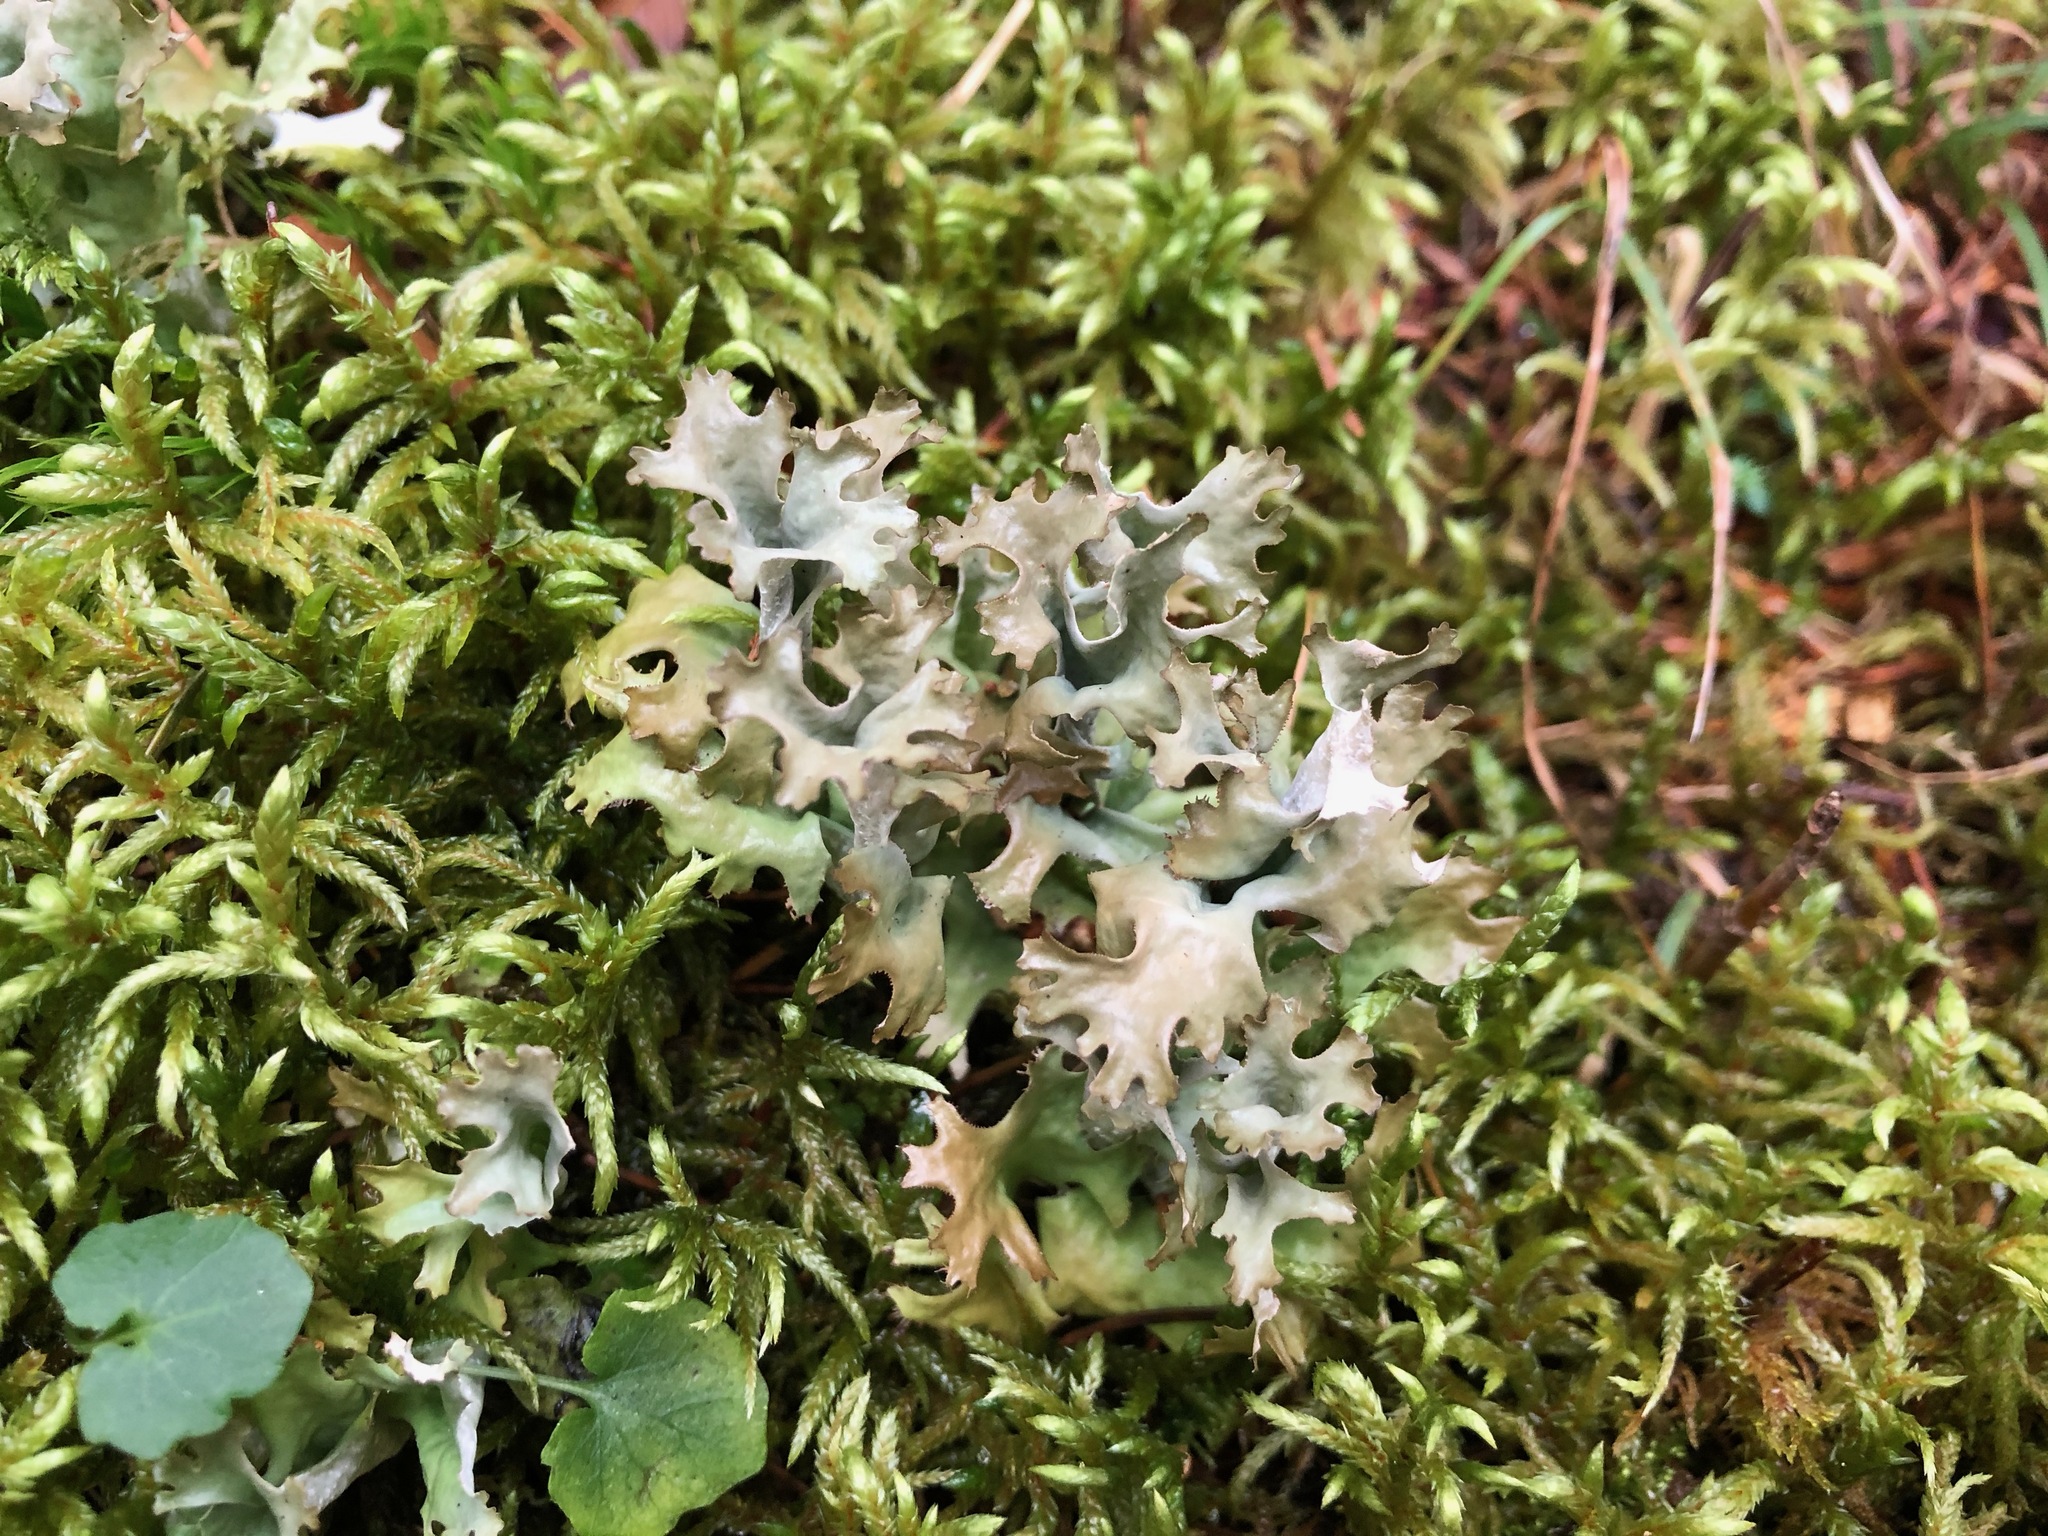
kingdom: Fungi
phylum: Ascomycota
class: Lecanoromycetes
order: Lecanorales
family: Parmeliaceae
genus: Cetraria
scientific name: Cetraria islandica
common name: Iceland lichen
